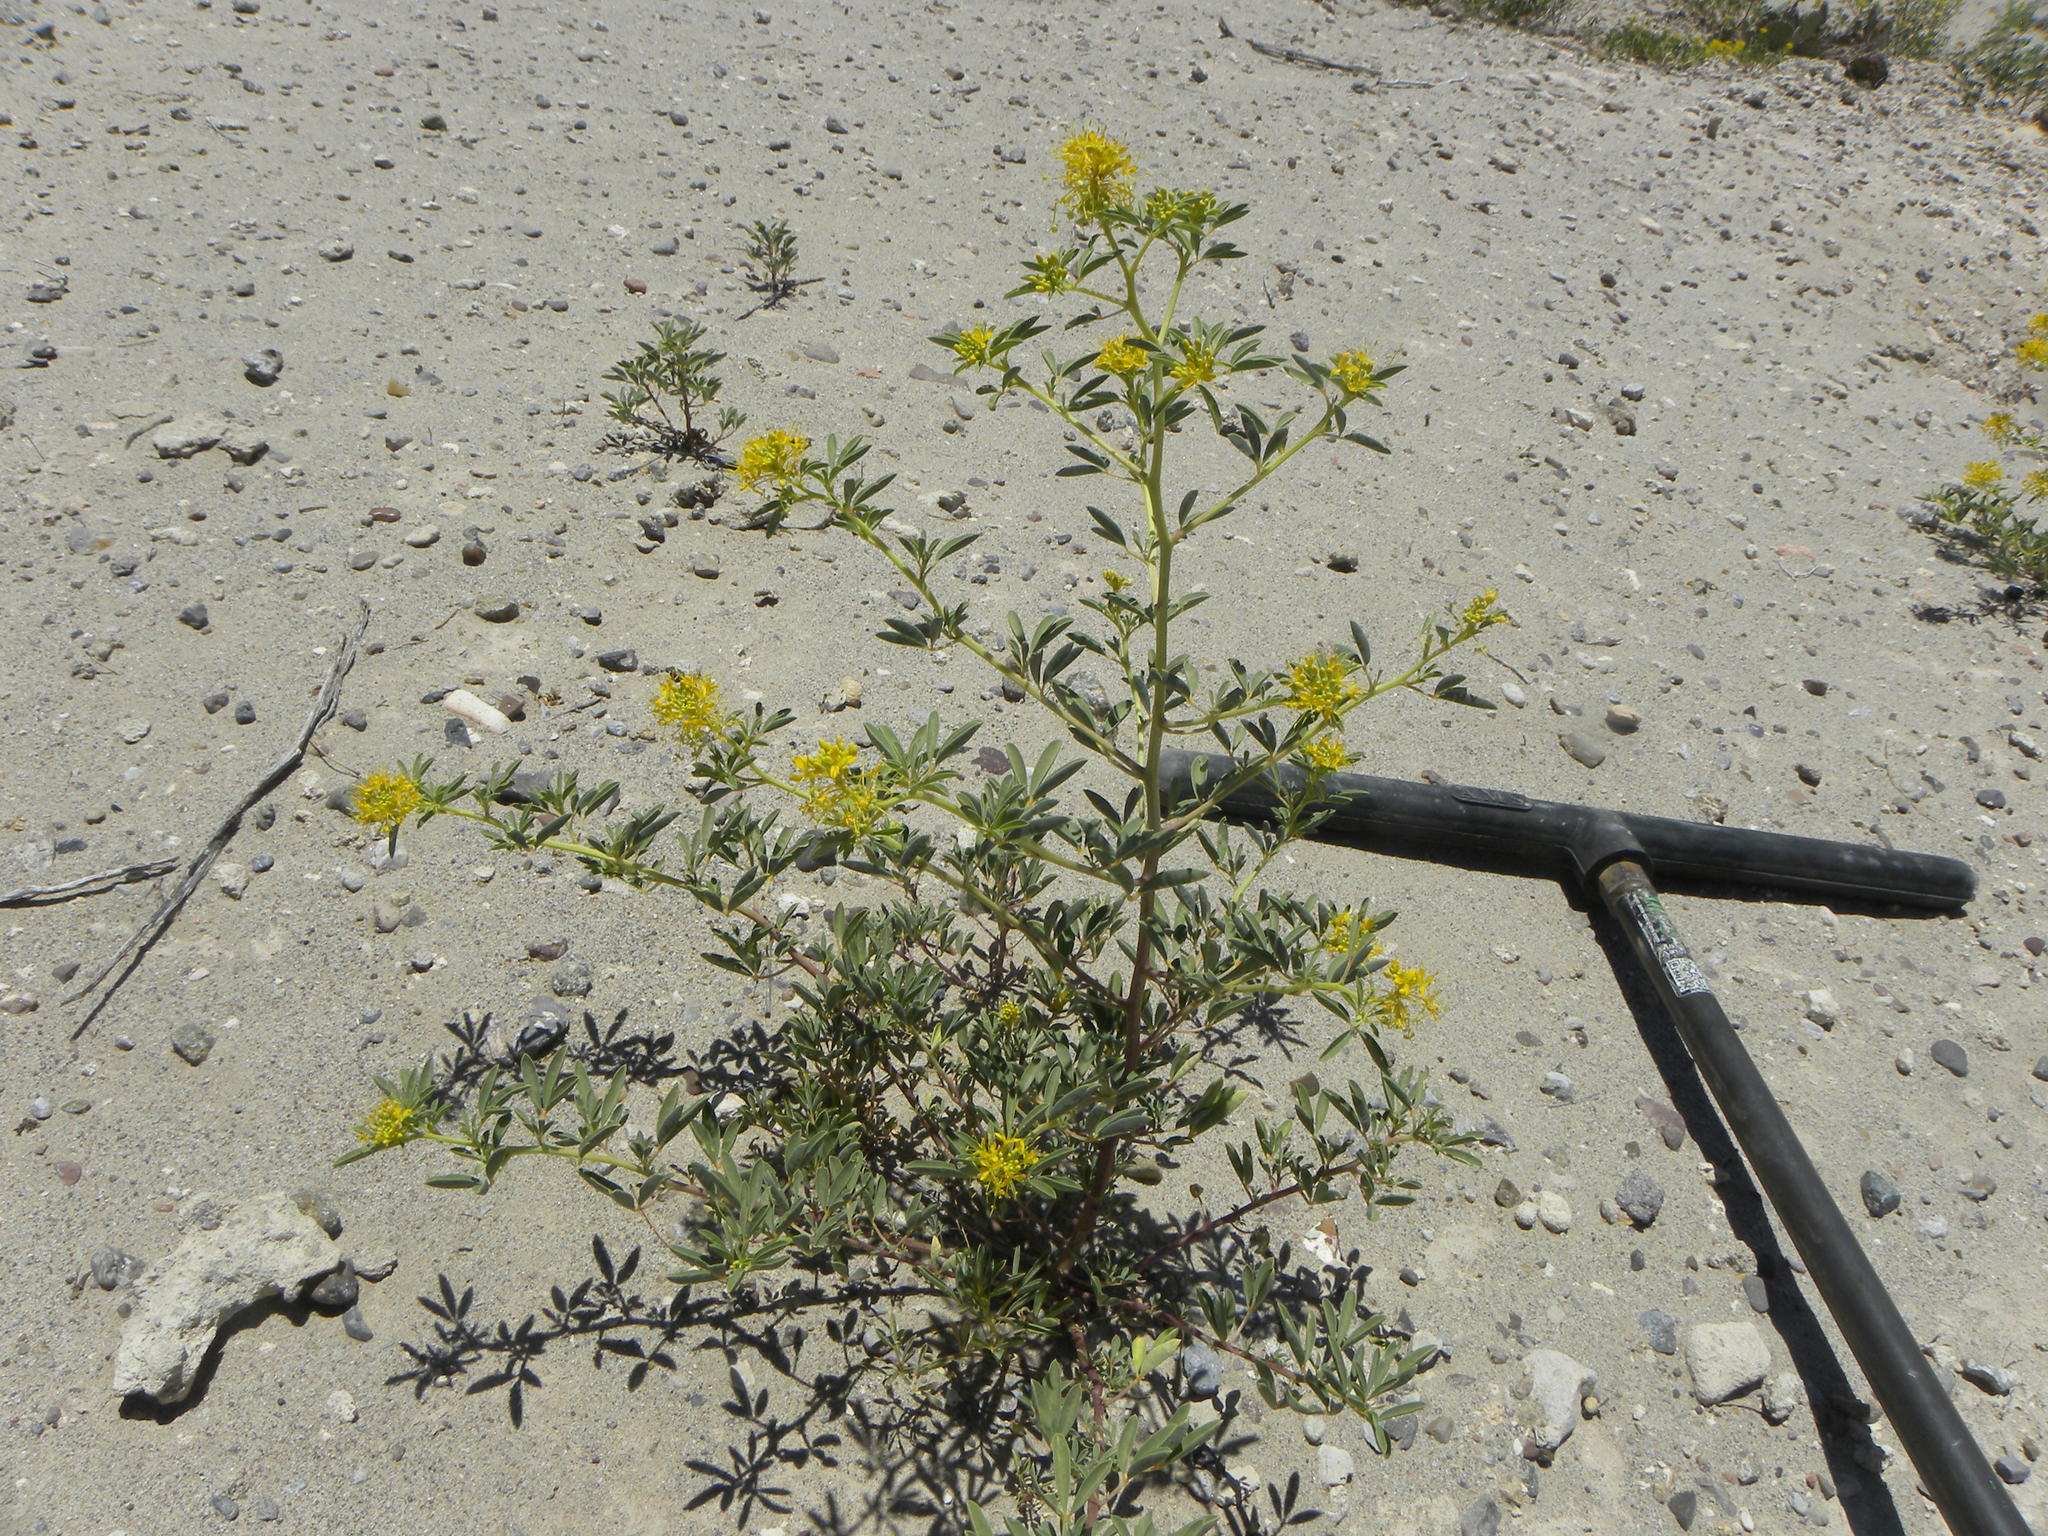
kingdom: Plantae
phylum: Tracheophyta
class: Magnoliopsida
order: Brassicales
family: Cleomaceae
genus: Cleomella
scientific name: Cleomella refracta
